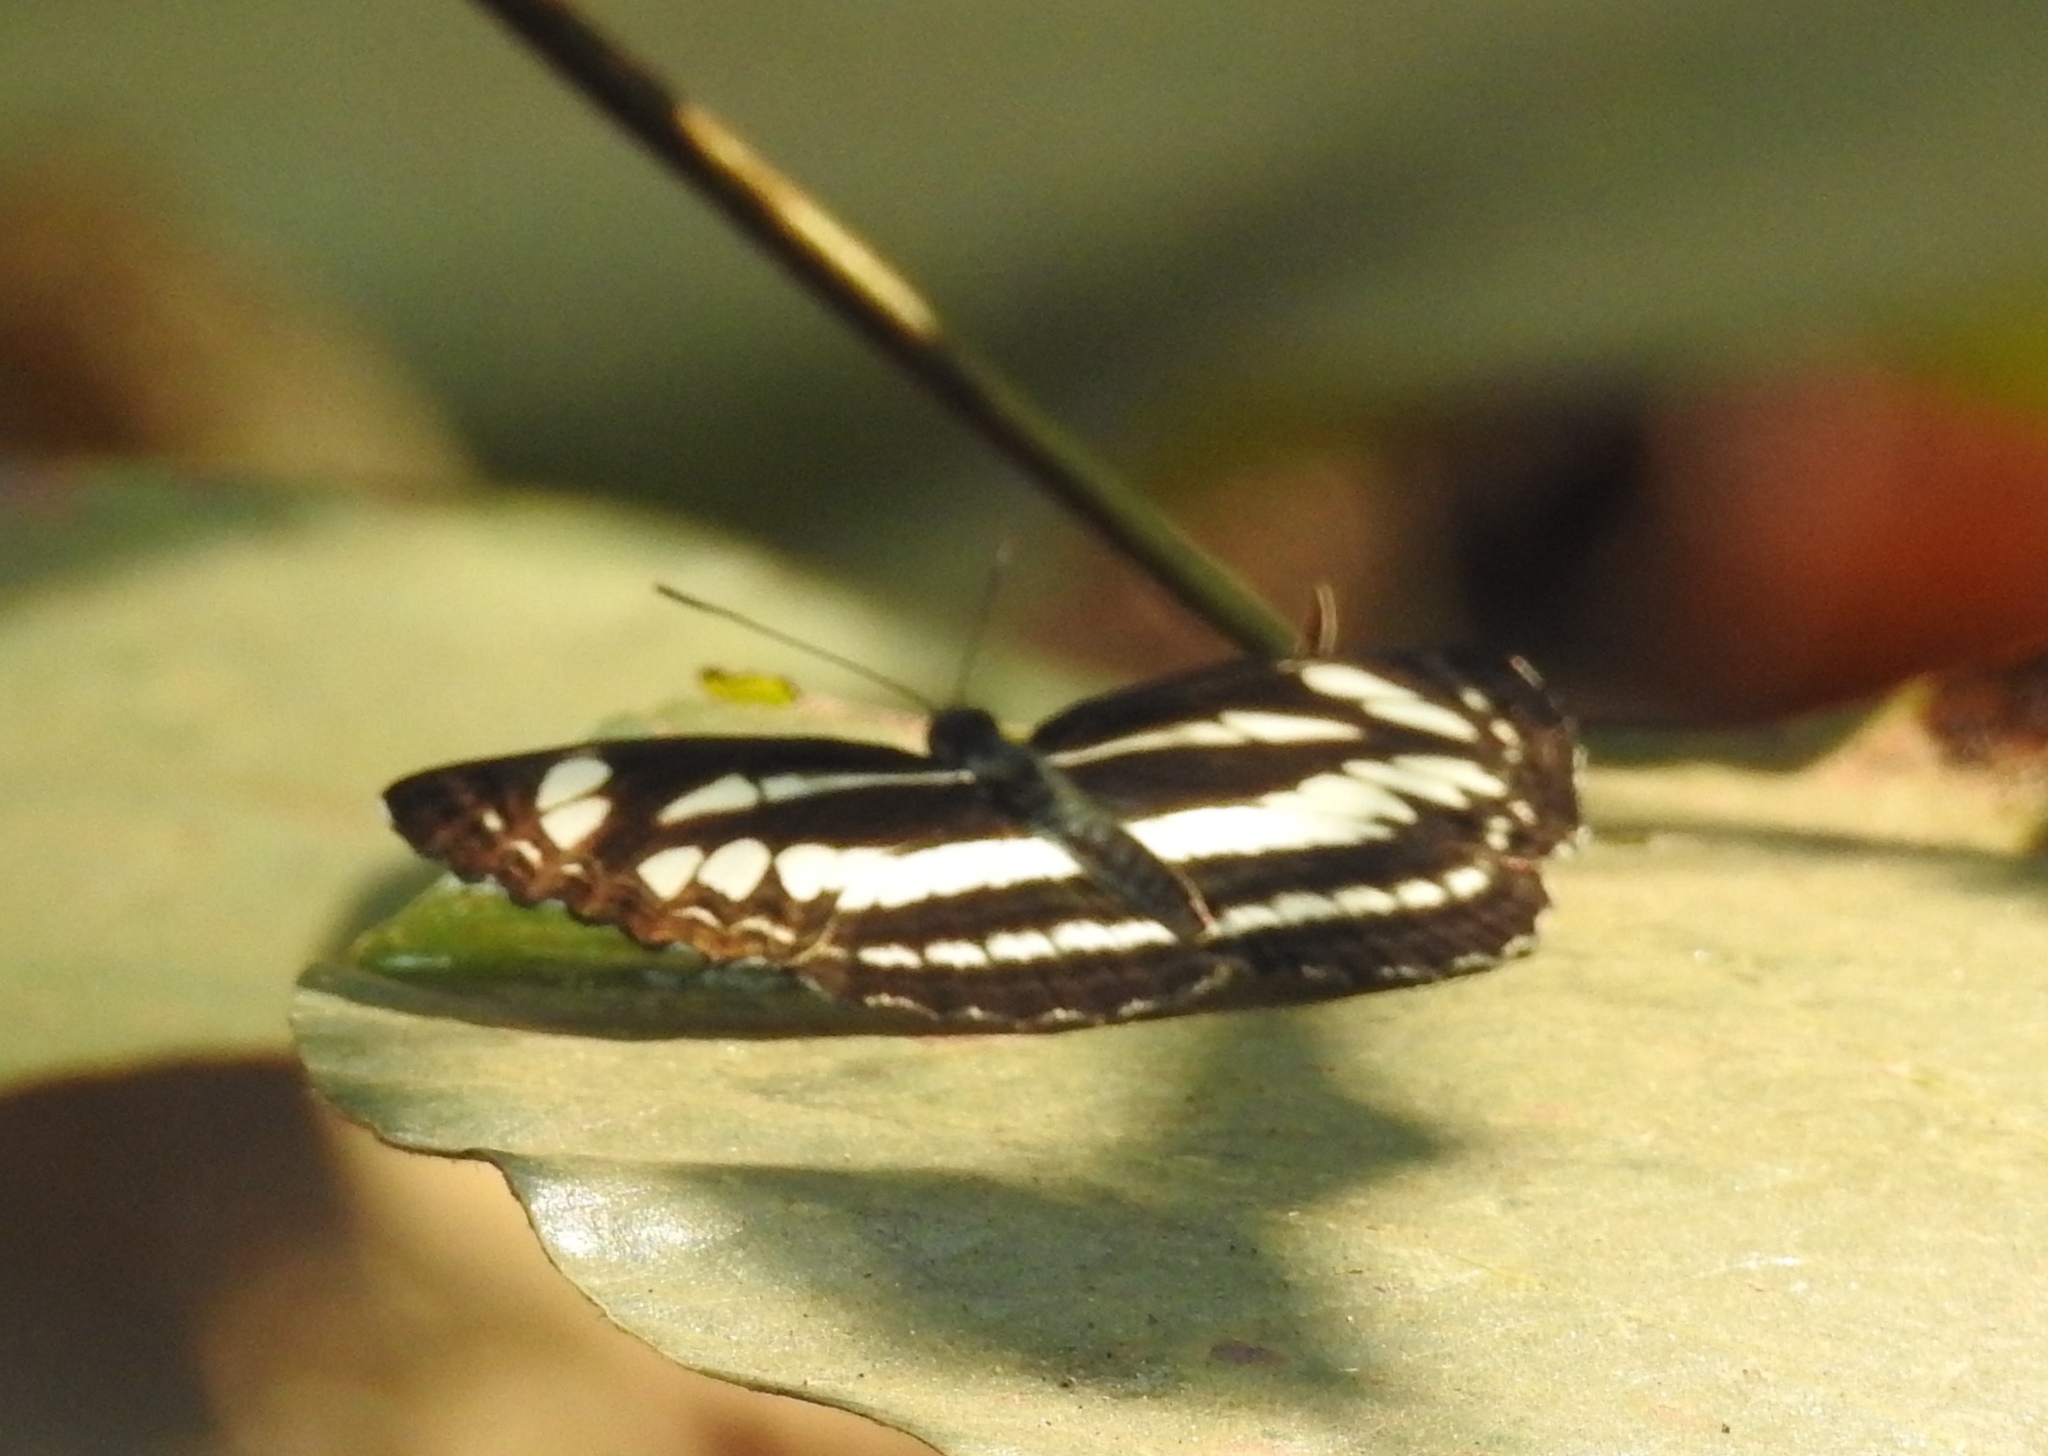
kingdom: Animalia
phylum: Arthropoda
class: Insecta
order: Lepidoptera
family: Nymphalidae
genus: Neptis
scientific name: Neptis jumbah
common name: Chestnut-streaked sailer
